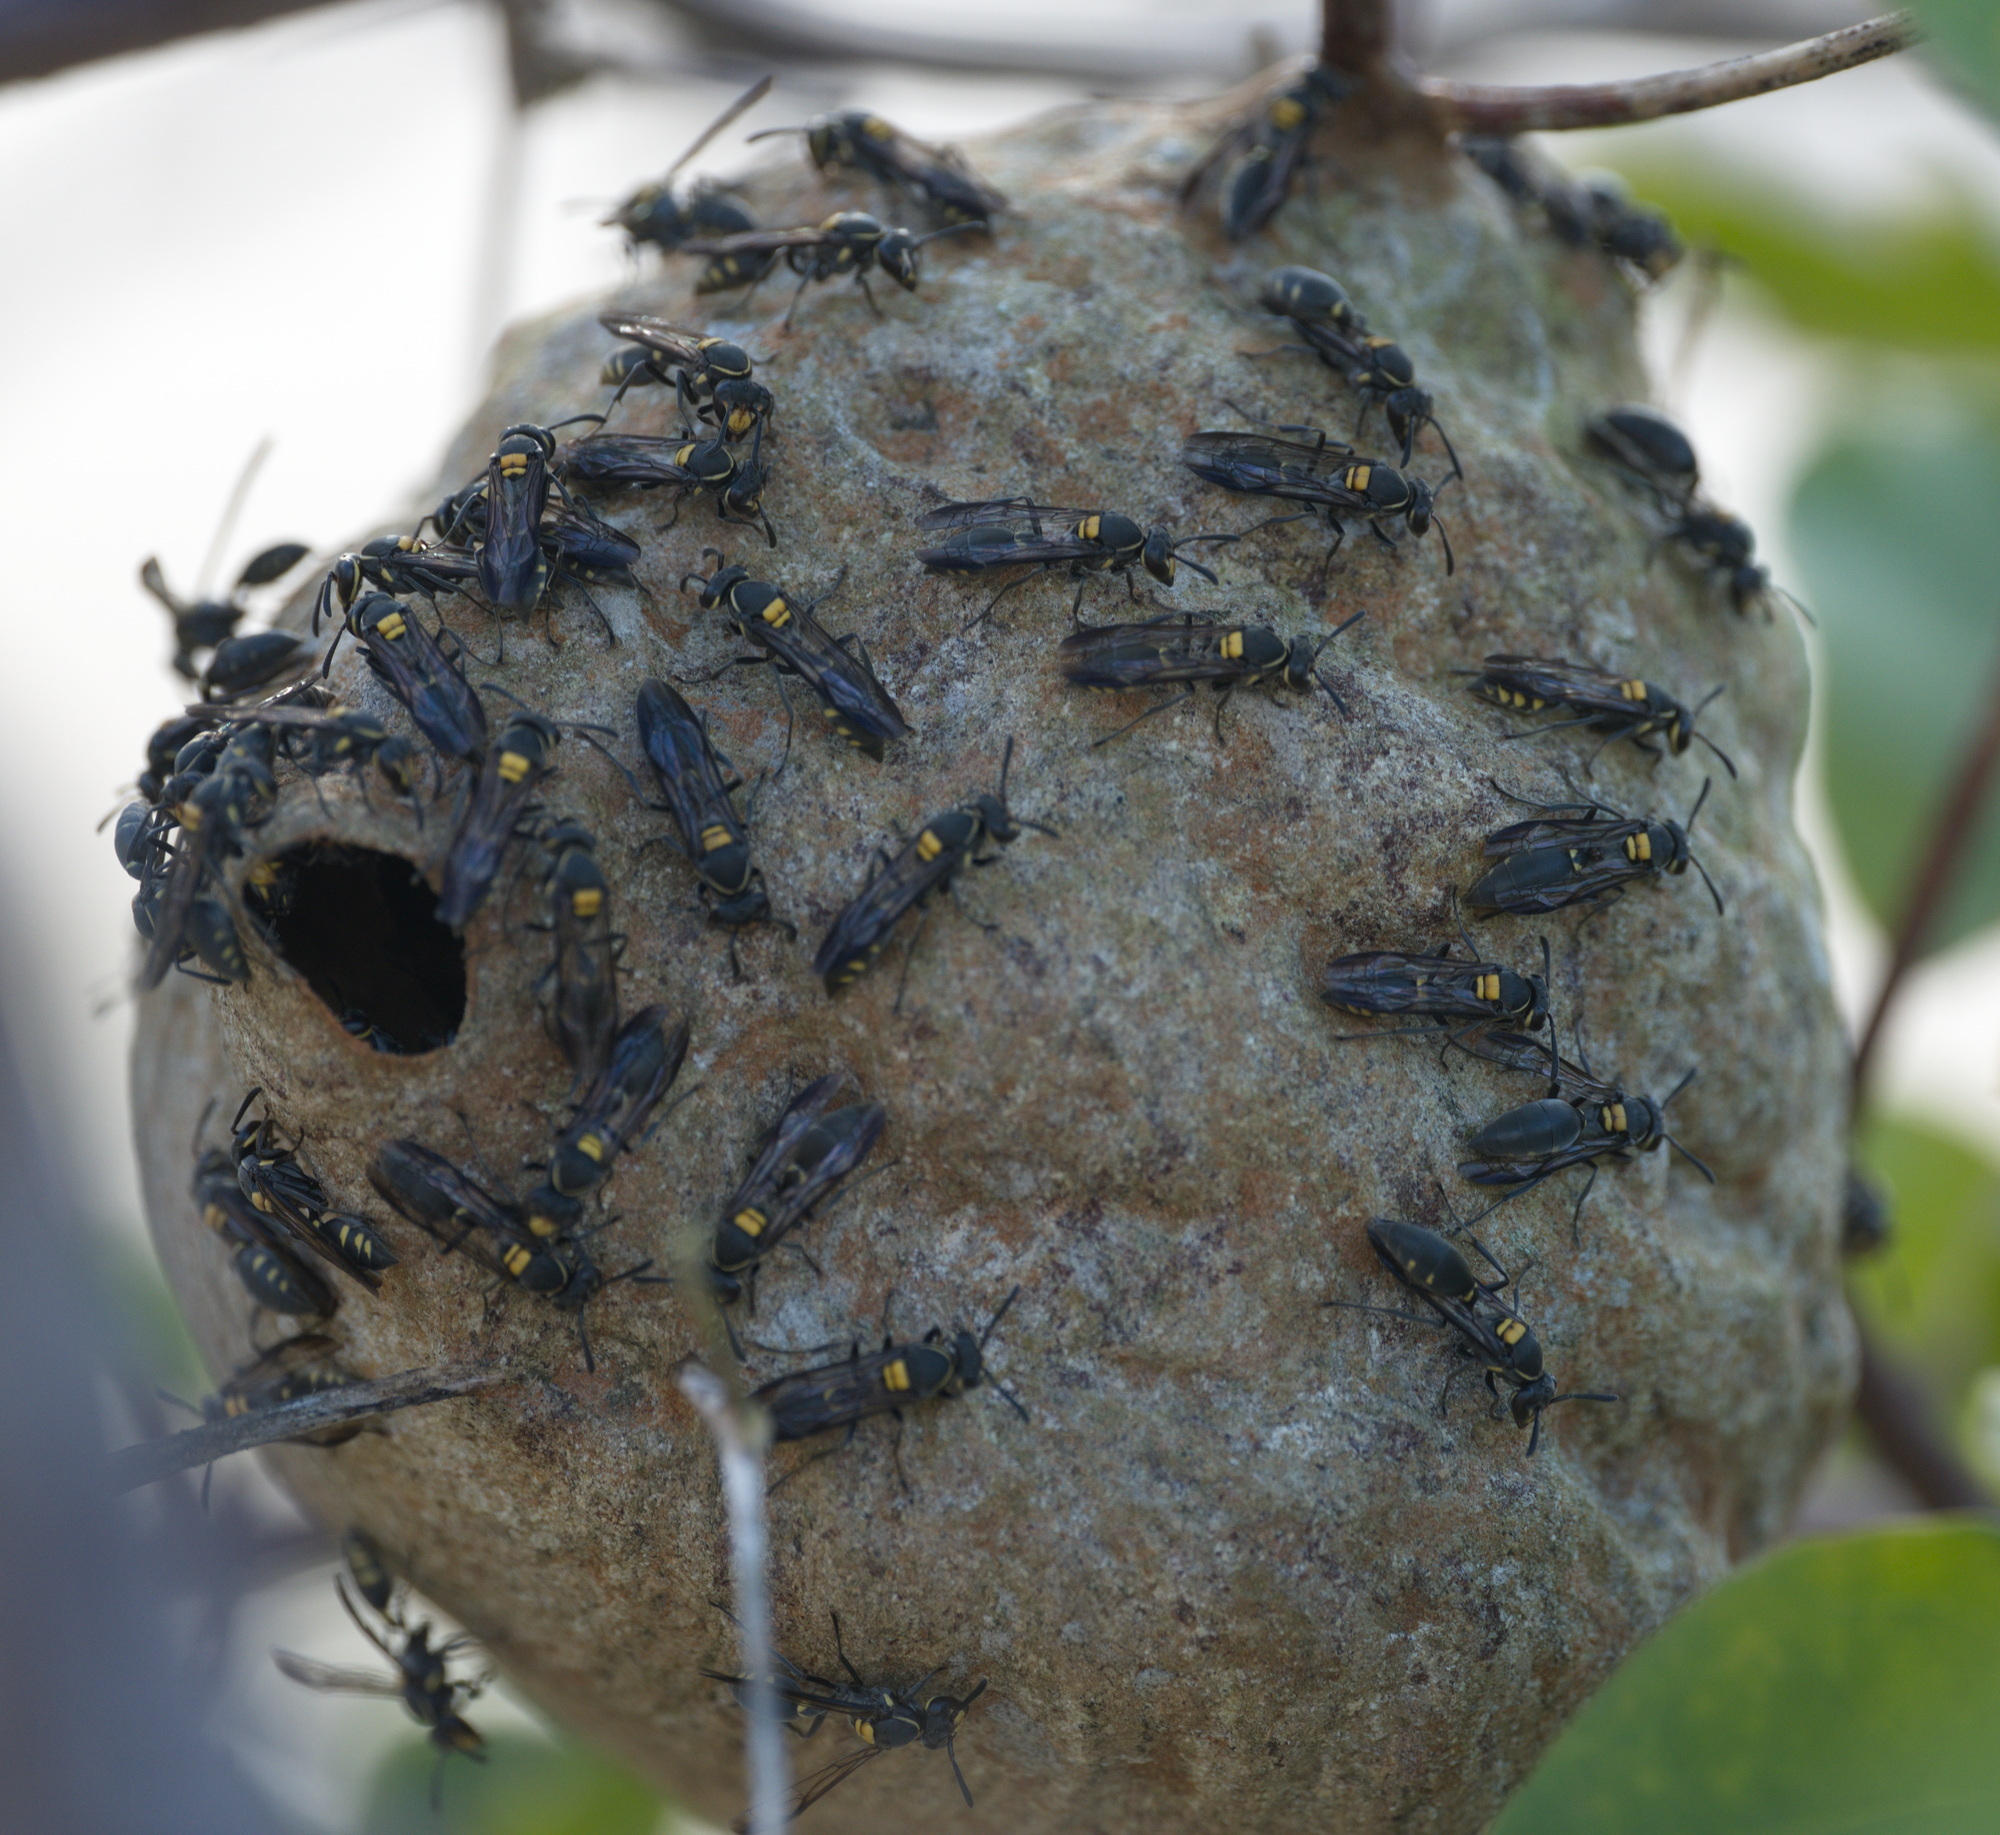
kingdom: Animalia
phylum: Arthropoda
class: Insecta
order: Hymenoptera
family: Eumenidae
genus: Polybia
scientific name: Polybia ruficeps
